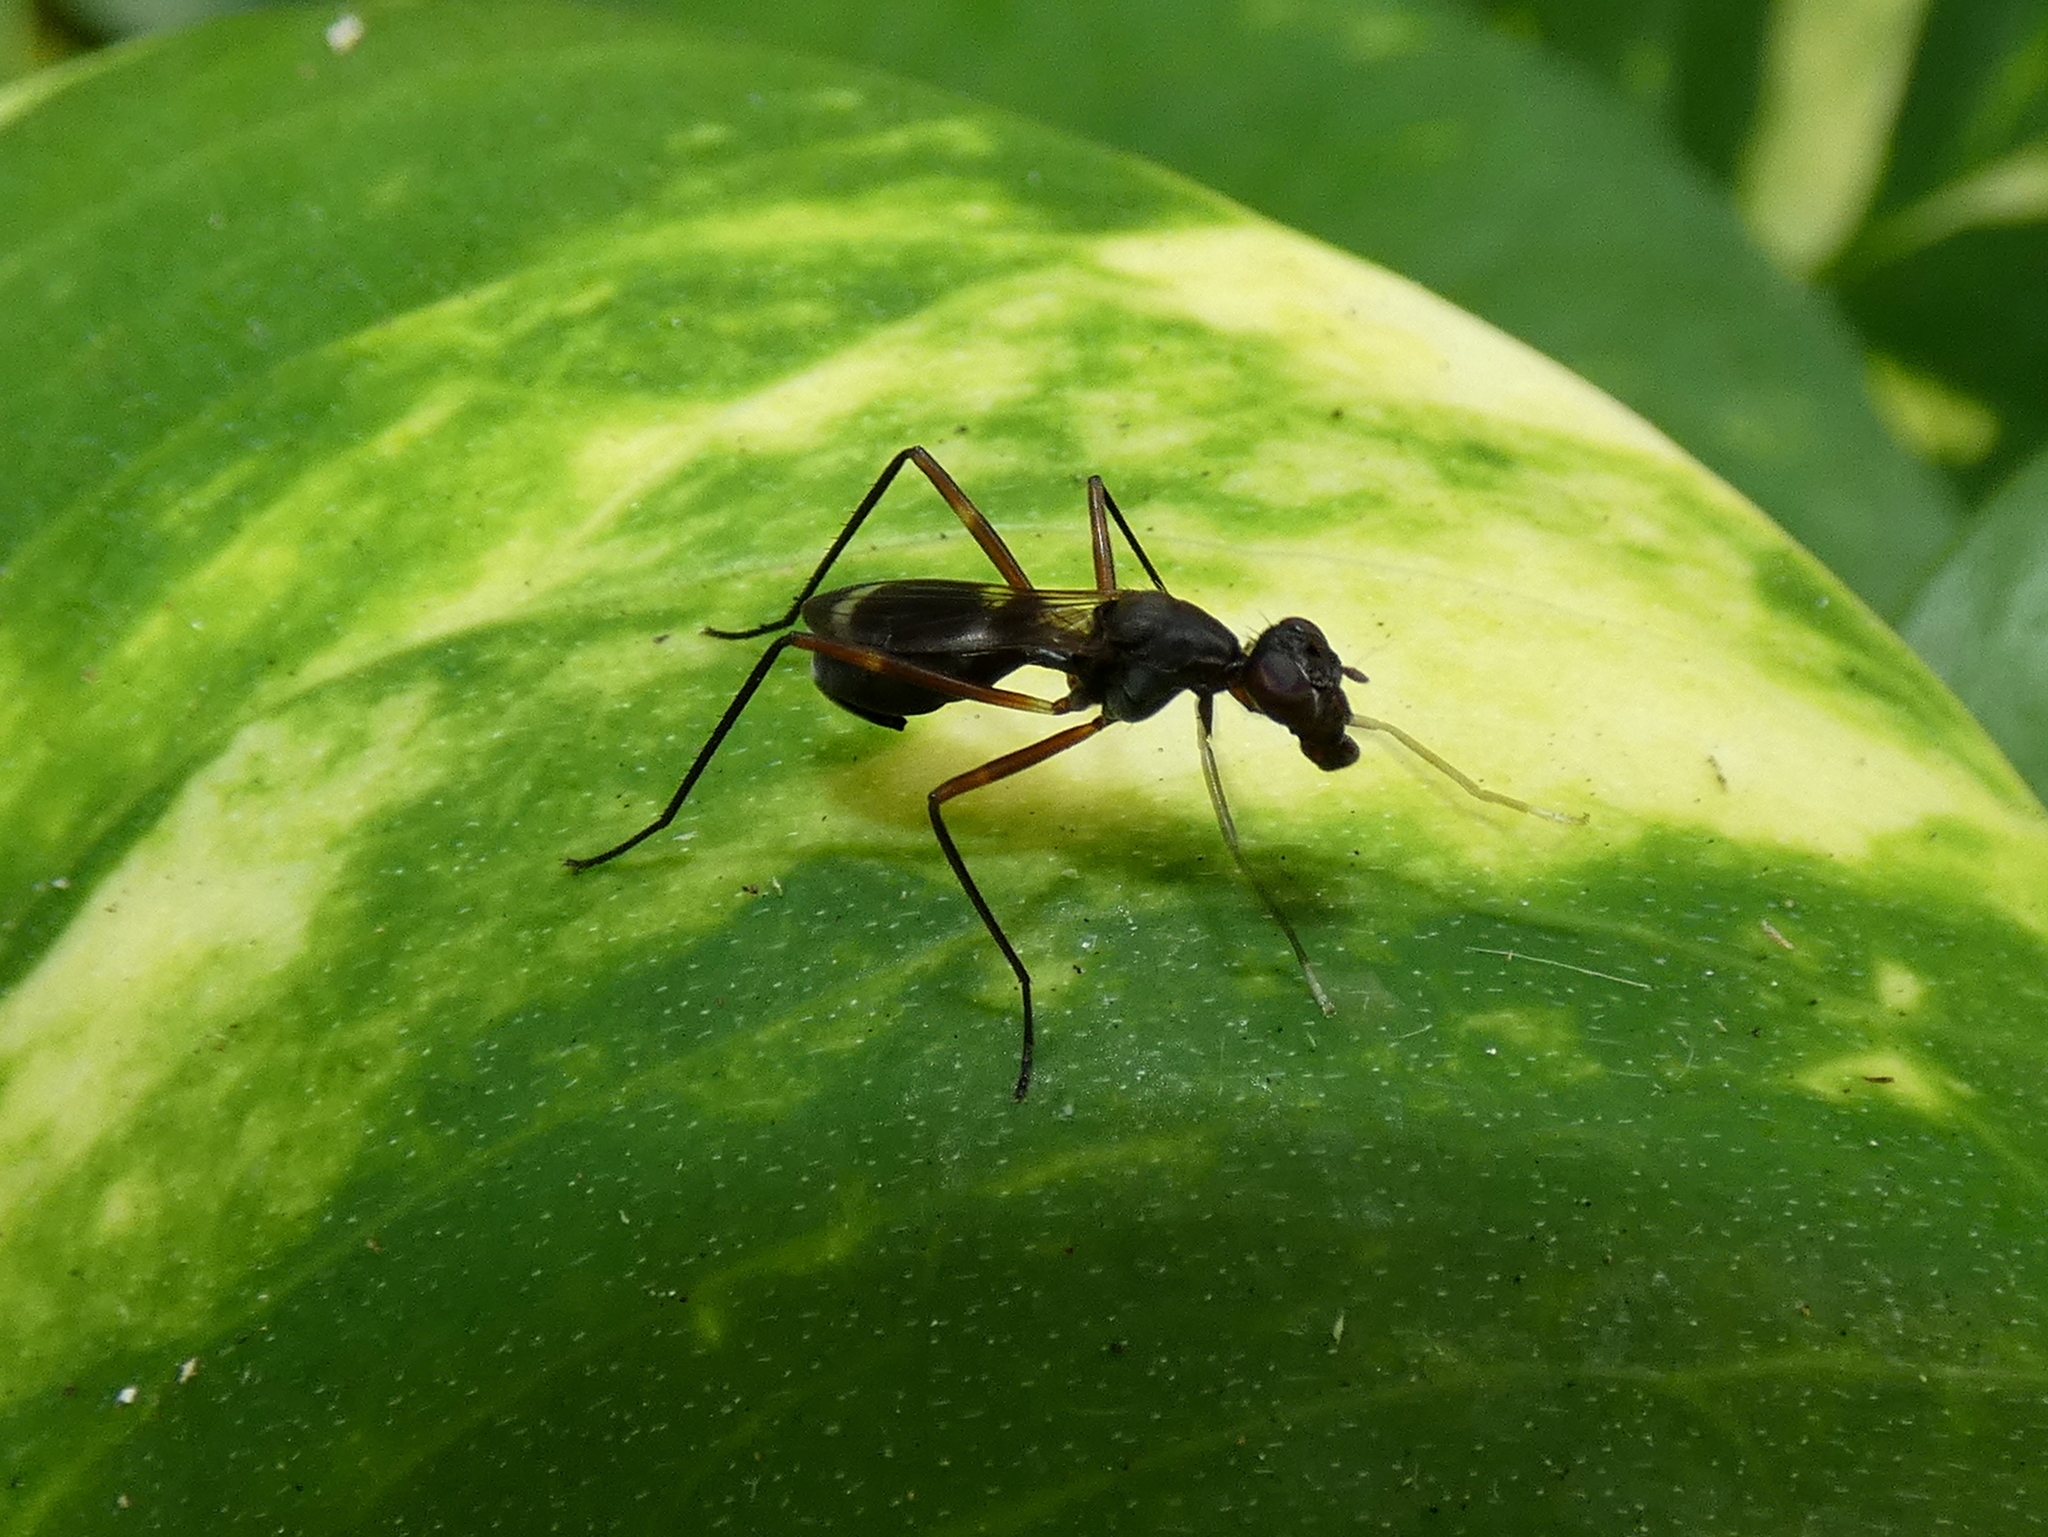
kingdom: Animalia
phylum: Arthropoda
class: Insecta
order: Diptera
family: Micropezidae
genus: Taeniaptera
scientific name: Taeniaptera trivittata
